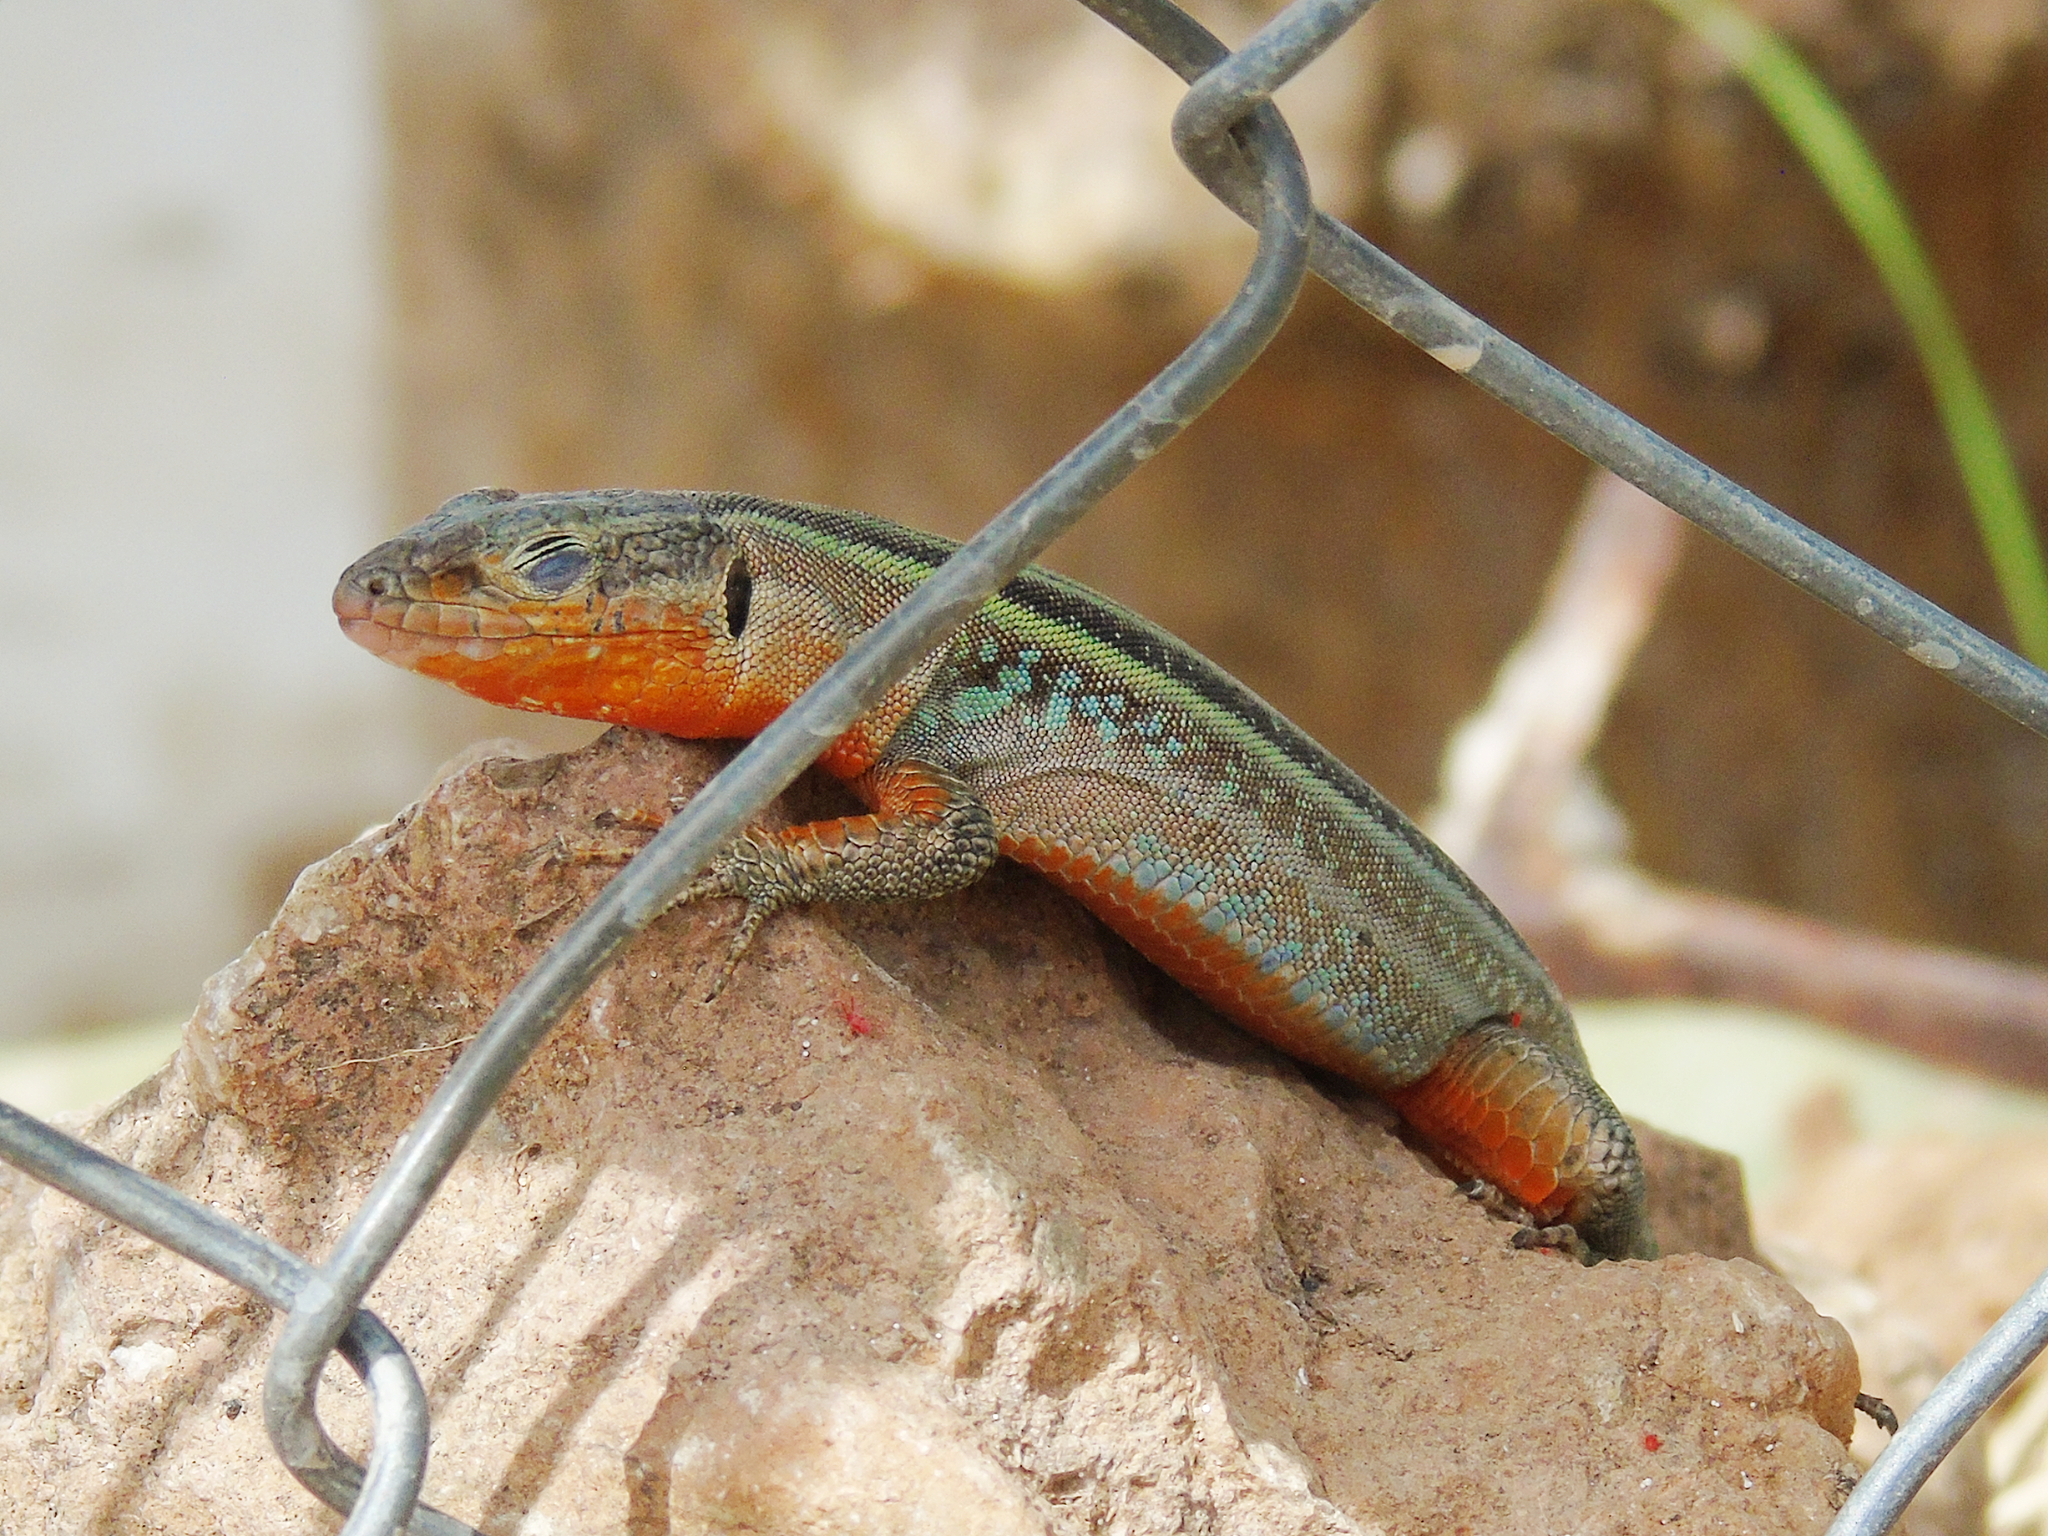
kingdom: Animalia
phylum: Chordata
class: Squamata
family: Lacertidae
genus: Podarcis
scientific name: Podarcis peloponnesiacus
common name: Peloponnese wall lizard
